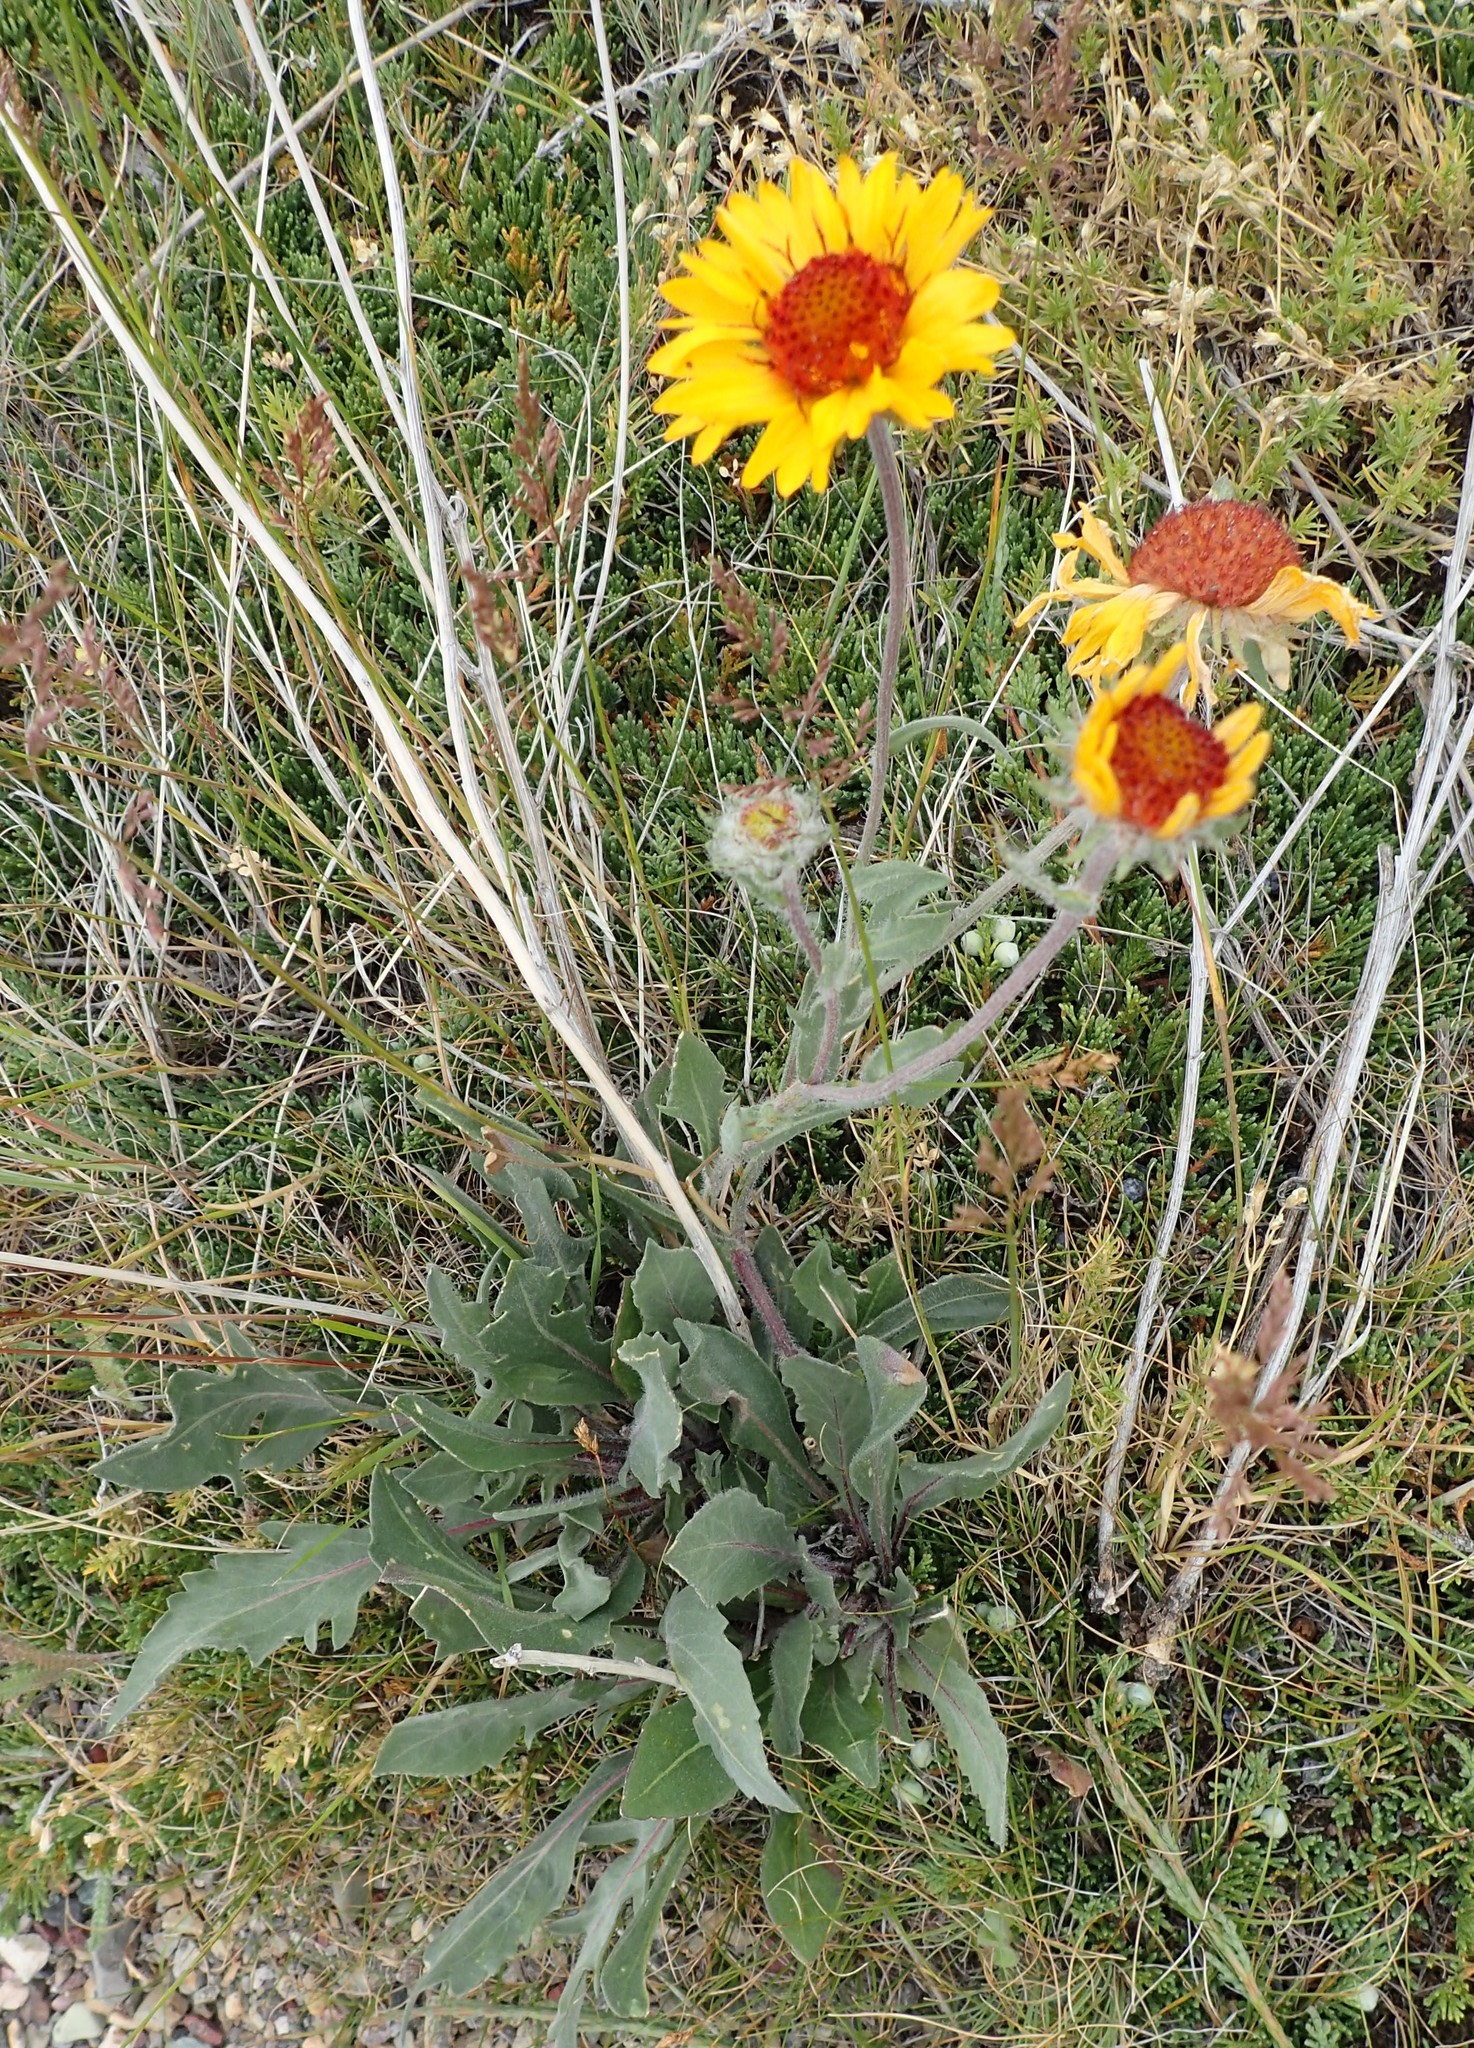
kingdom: Plantae
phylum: Tracheophyta
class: Magnoliopsida
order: Asterales
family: Asteraceae
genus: Gaillardia
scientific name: Gaillardia aristata
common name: Blanket-flower
